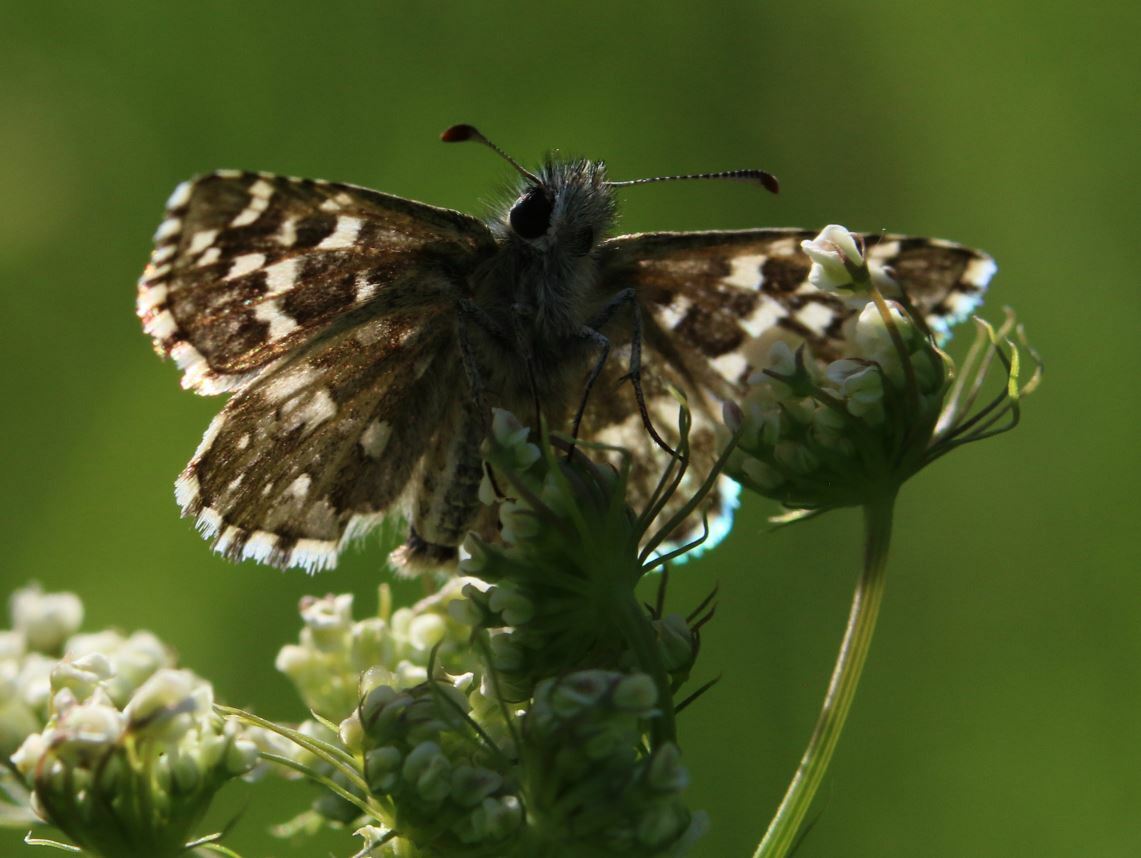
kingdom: Animalia
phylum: Arthropoda
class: Insecta
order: Lepidoptera
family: Hesperiidae
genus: Pyrgus
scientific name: Pyrgus malvoides
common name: Southern grizzled skipper
